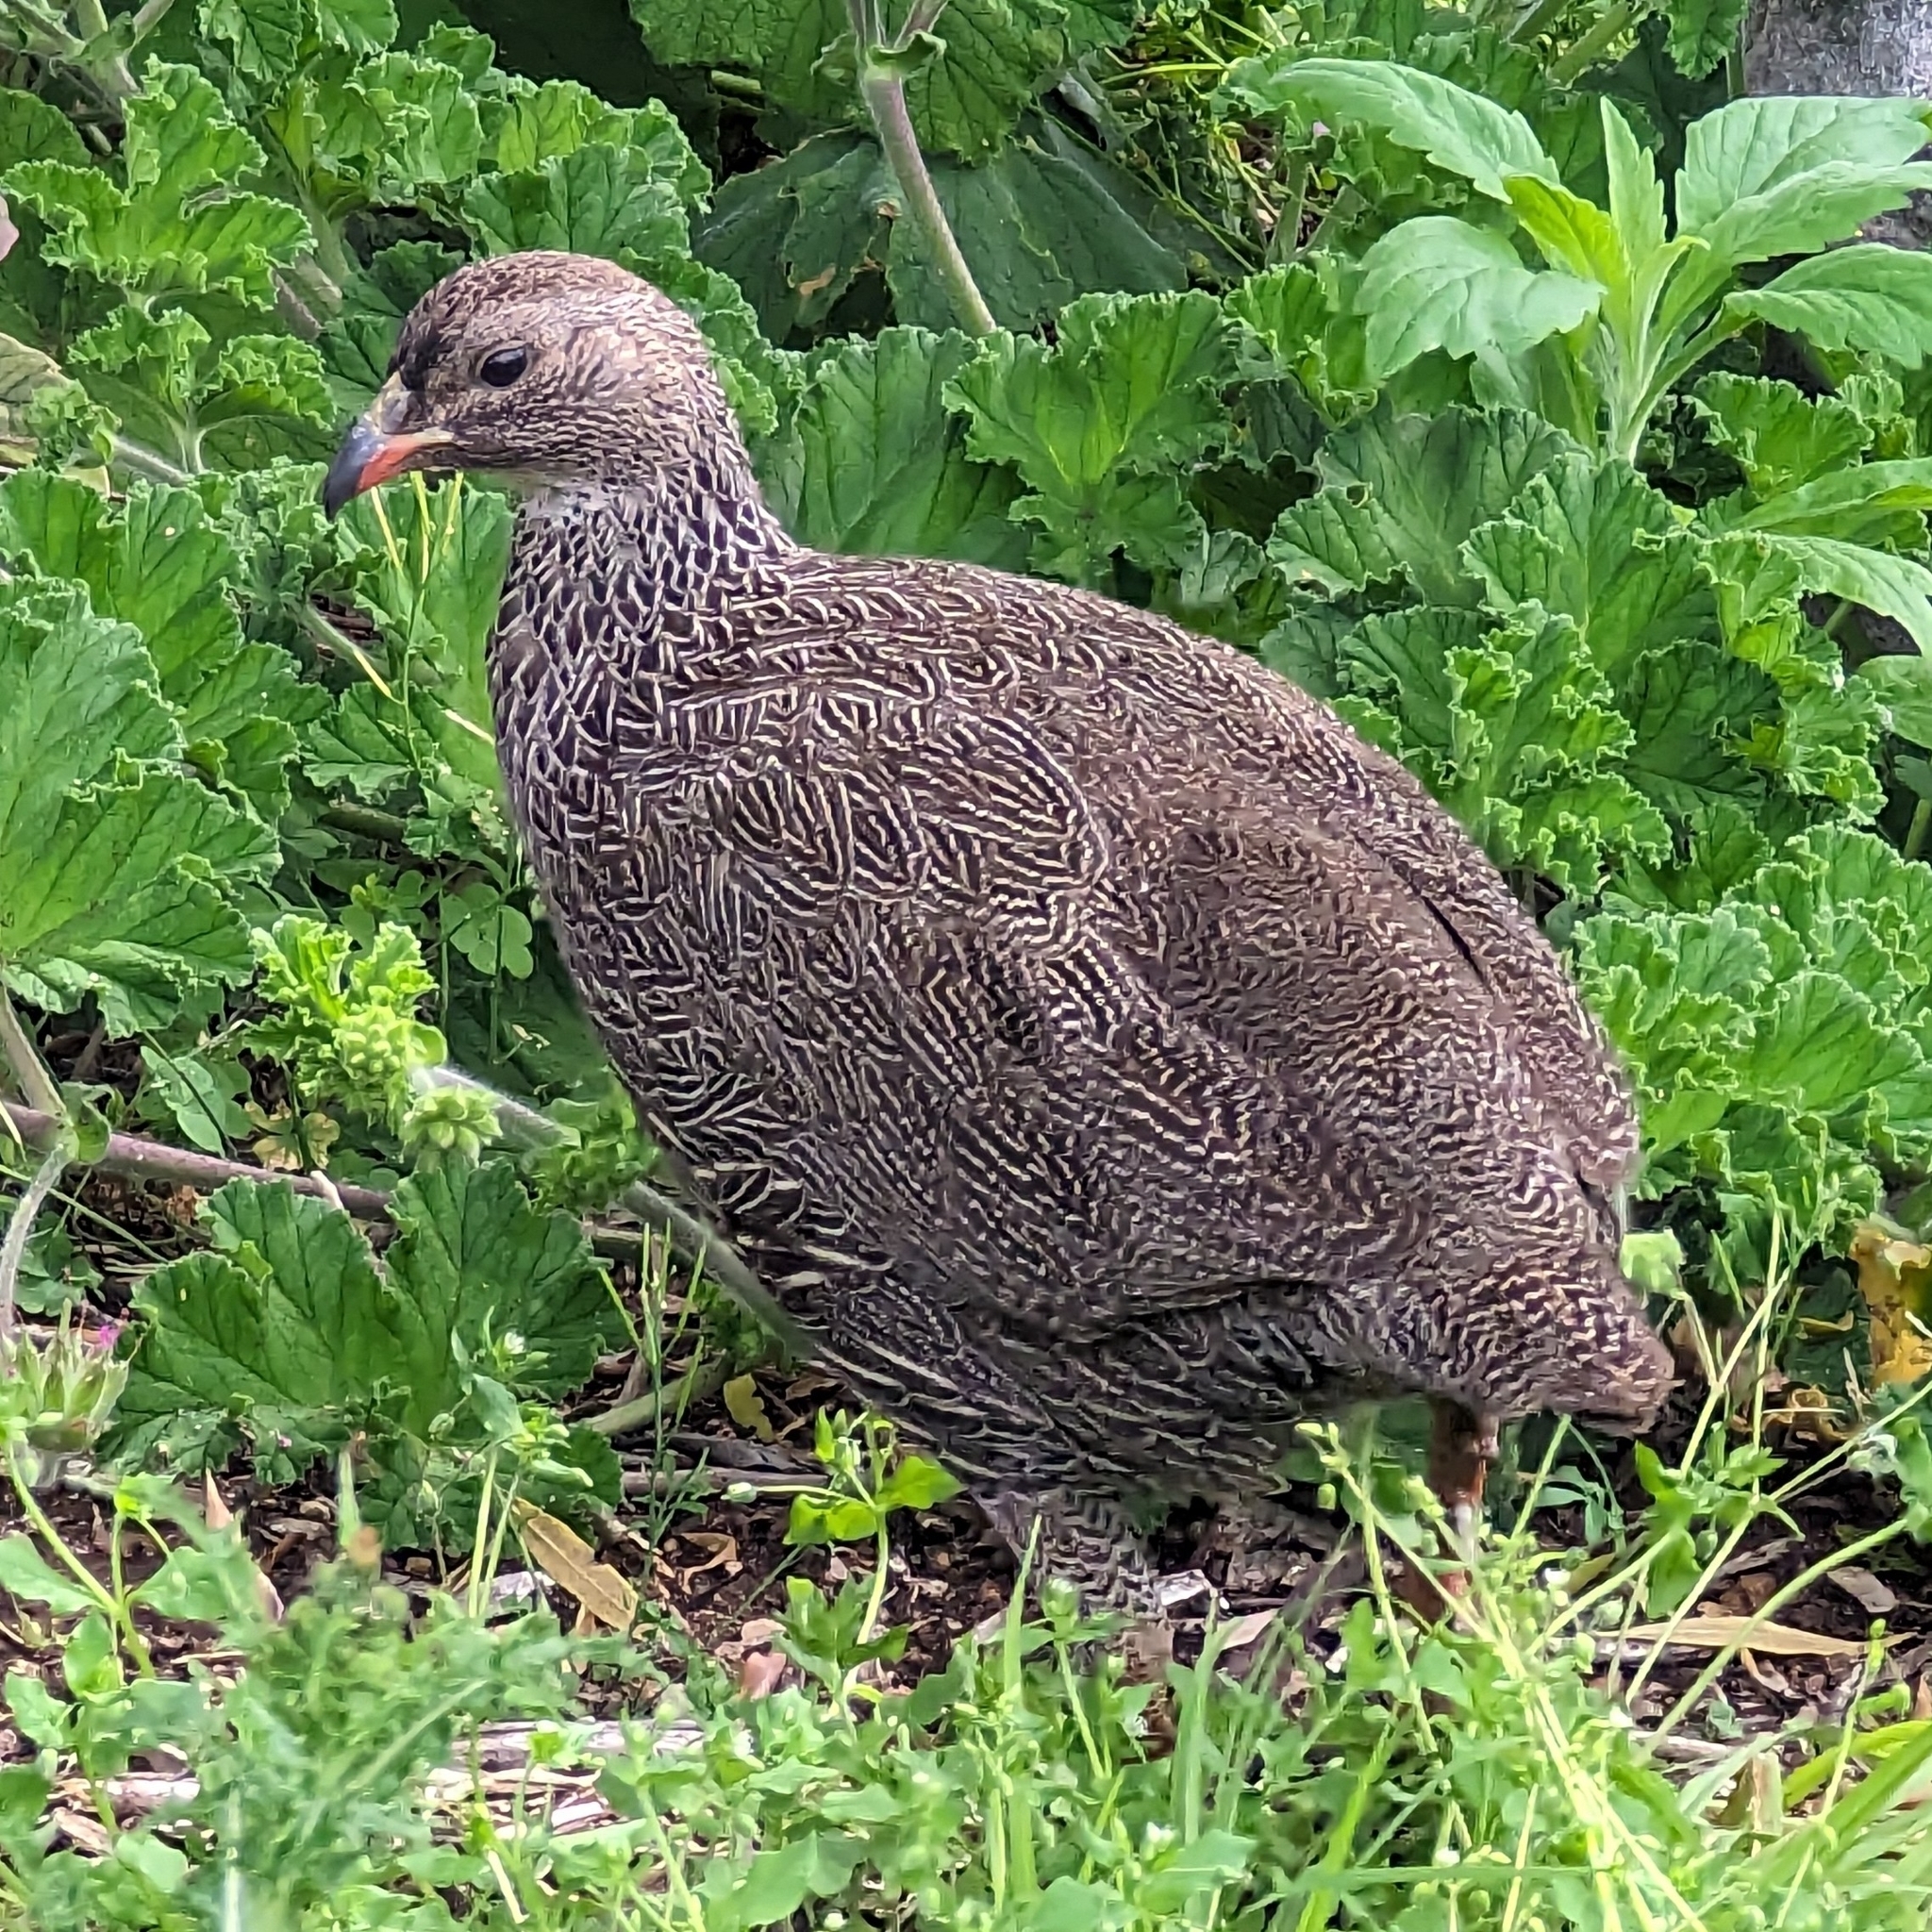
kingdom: Animalia
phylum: Chordata
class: Aves
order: Galliformes
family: Phasianidae
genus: Pternistis
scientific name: Pternistis capensis
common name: Cape spurfowl
